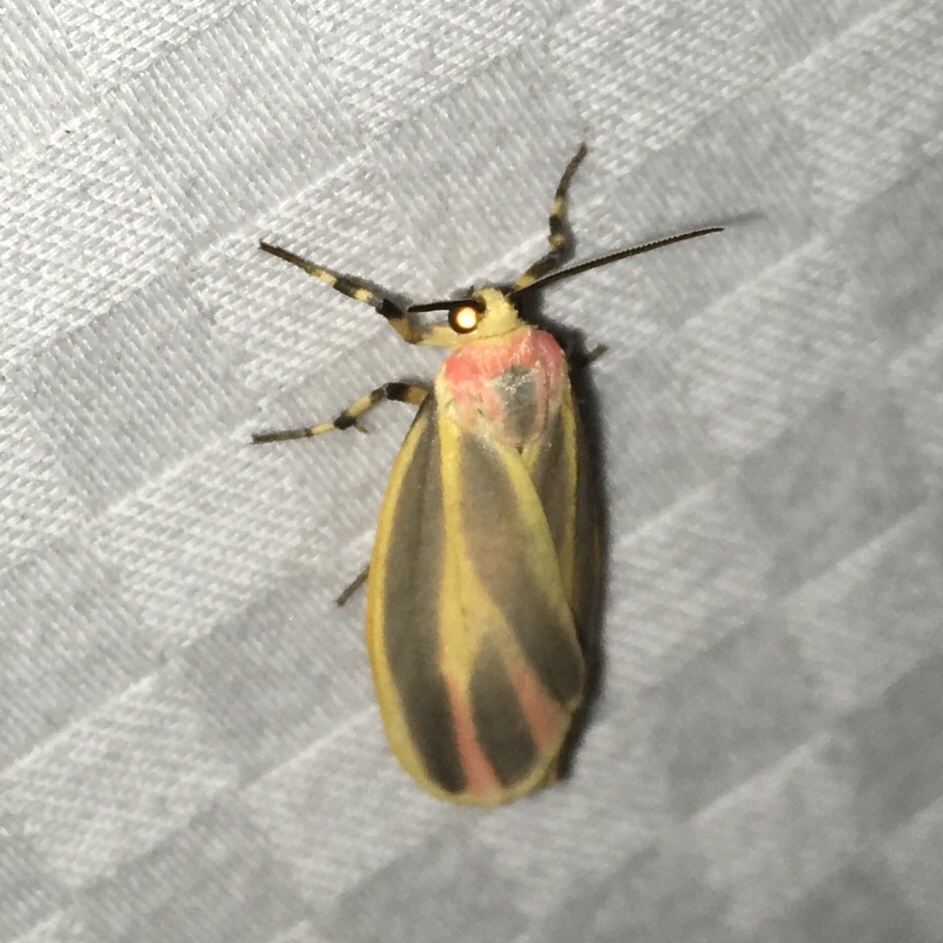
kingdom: Animalia
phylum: Arthropoda
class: Insecta
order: Lepidoptera
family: Erebidae
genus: Hypoprepia
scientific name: Hypoprepia fucosa
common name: Painted lichen moth
